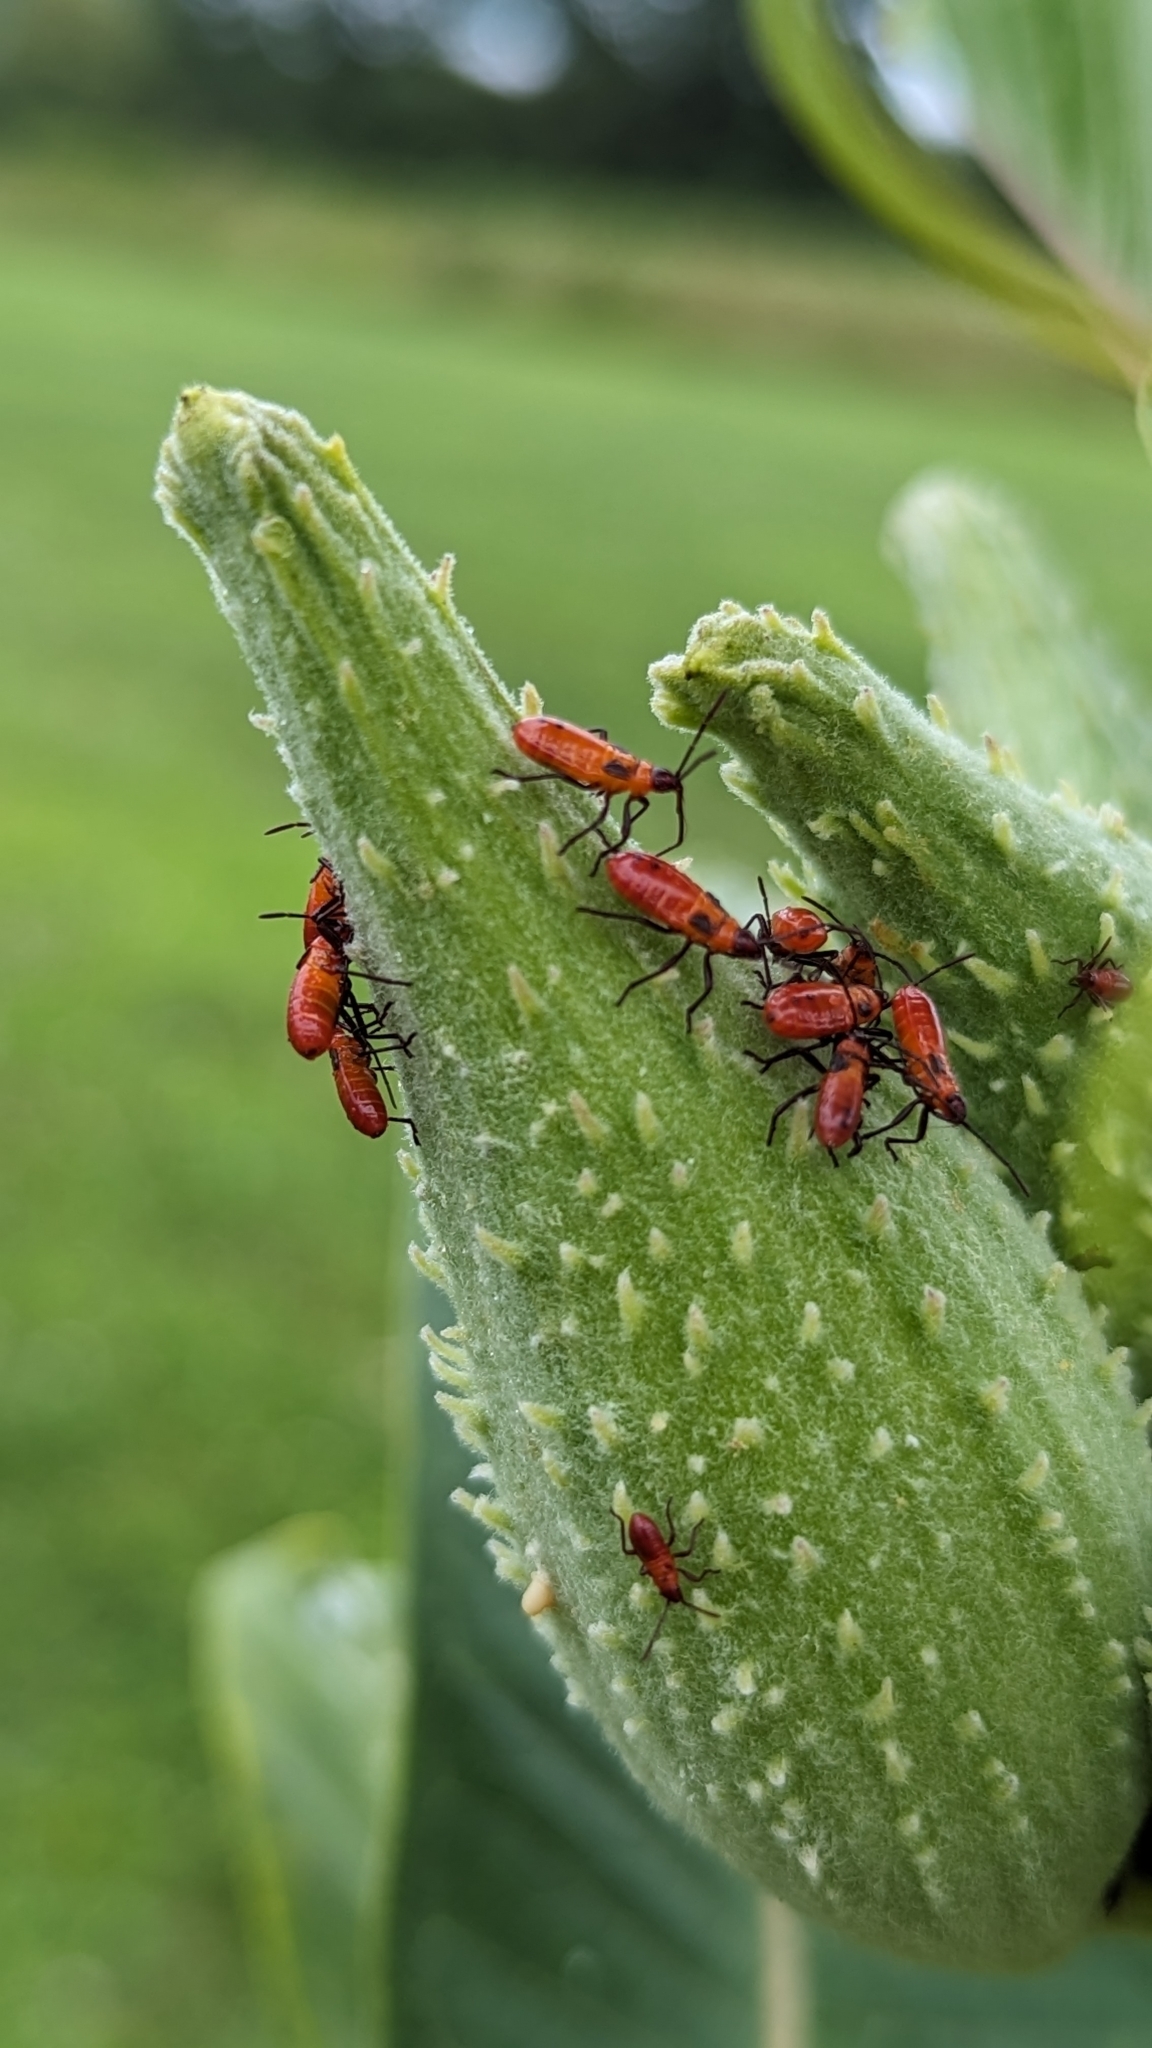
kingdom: Animalia
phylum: Arthropoda
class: Insecta
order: Hemiptera
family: Lygaeidae
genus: Oncopeltus
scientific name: Oncopeltus fasciatus
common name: Large milkweed bug
